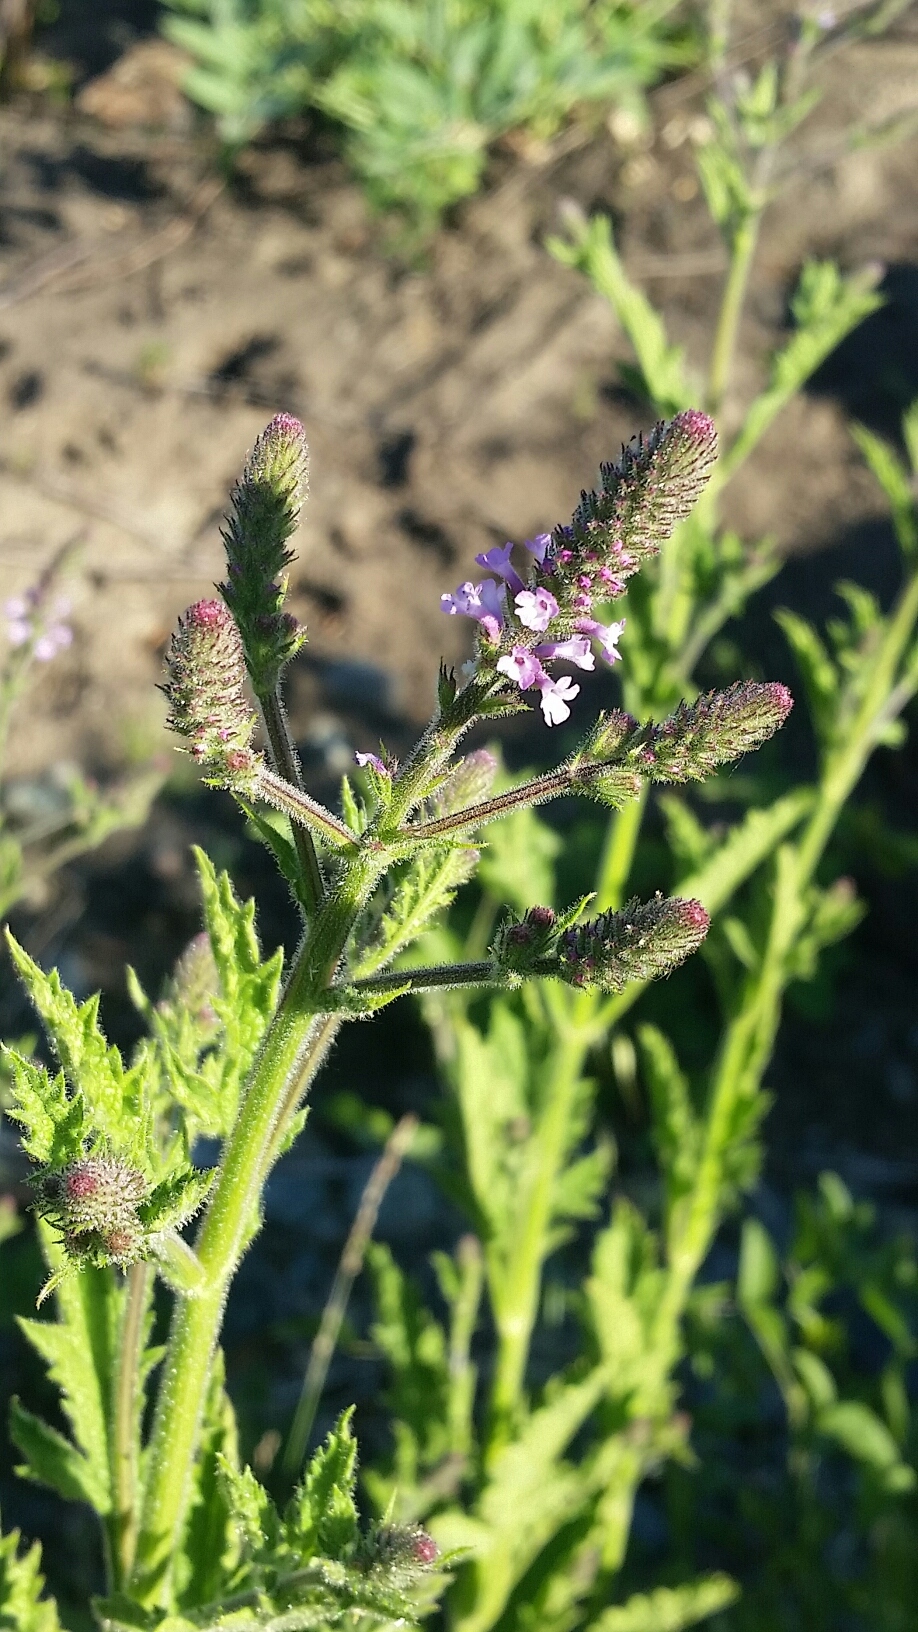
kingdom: Plantae
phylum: Tracheophyta
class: Magnoliopsida
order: Lamiales
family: Verbenaceae
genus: Verbena
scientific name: Verbena lasiostachys
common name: Vervain
